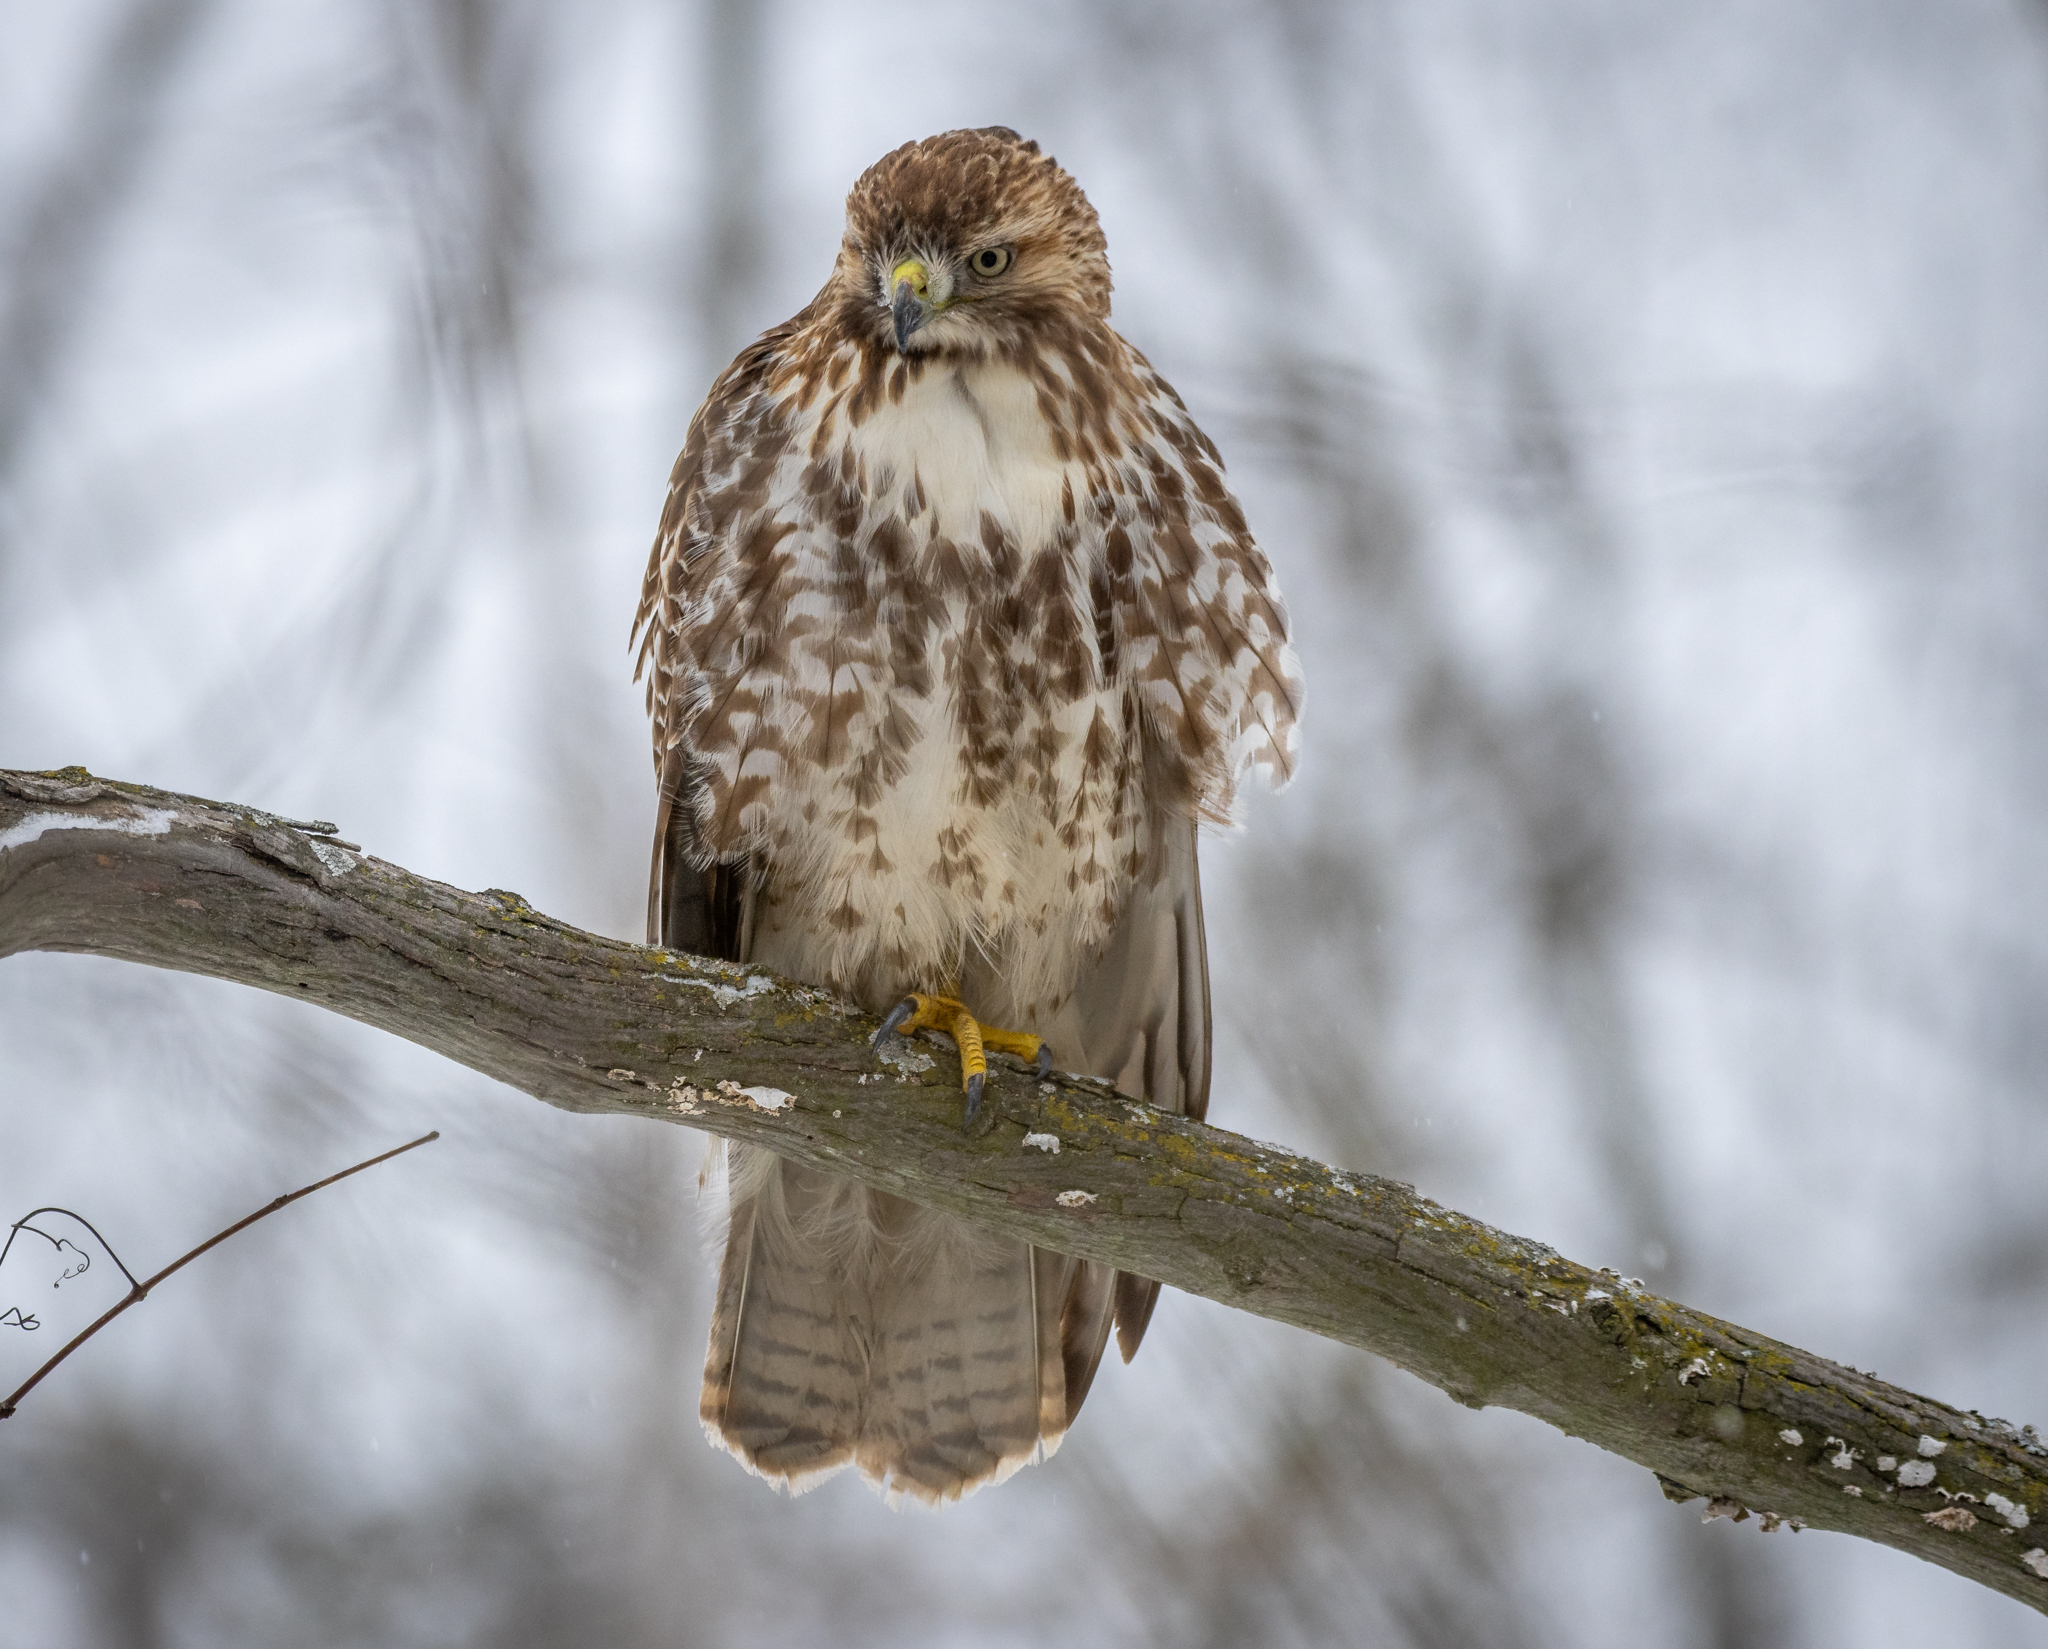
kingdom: Animalia
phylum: Chordata
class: Aves
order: Accipitriformes
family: Accipitridae
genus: Buteo
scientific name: Buteo jamaicensis
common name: Red-tailed hawk
